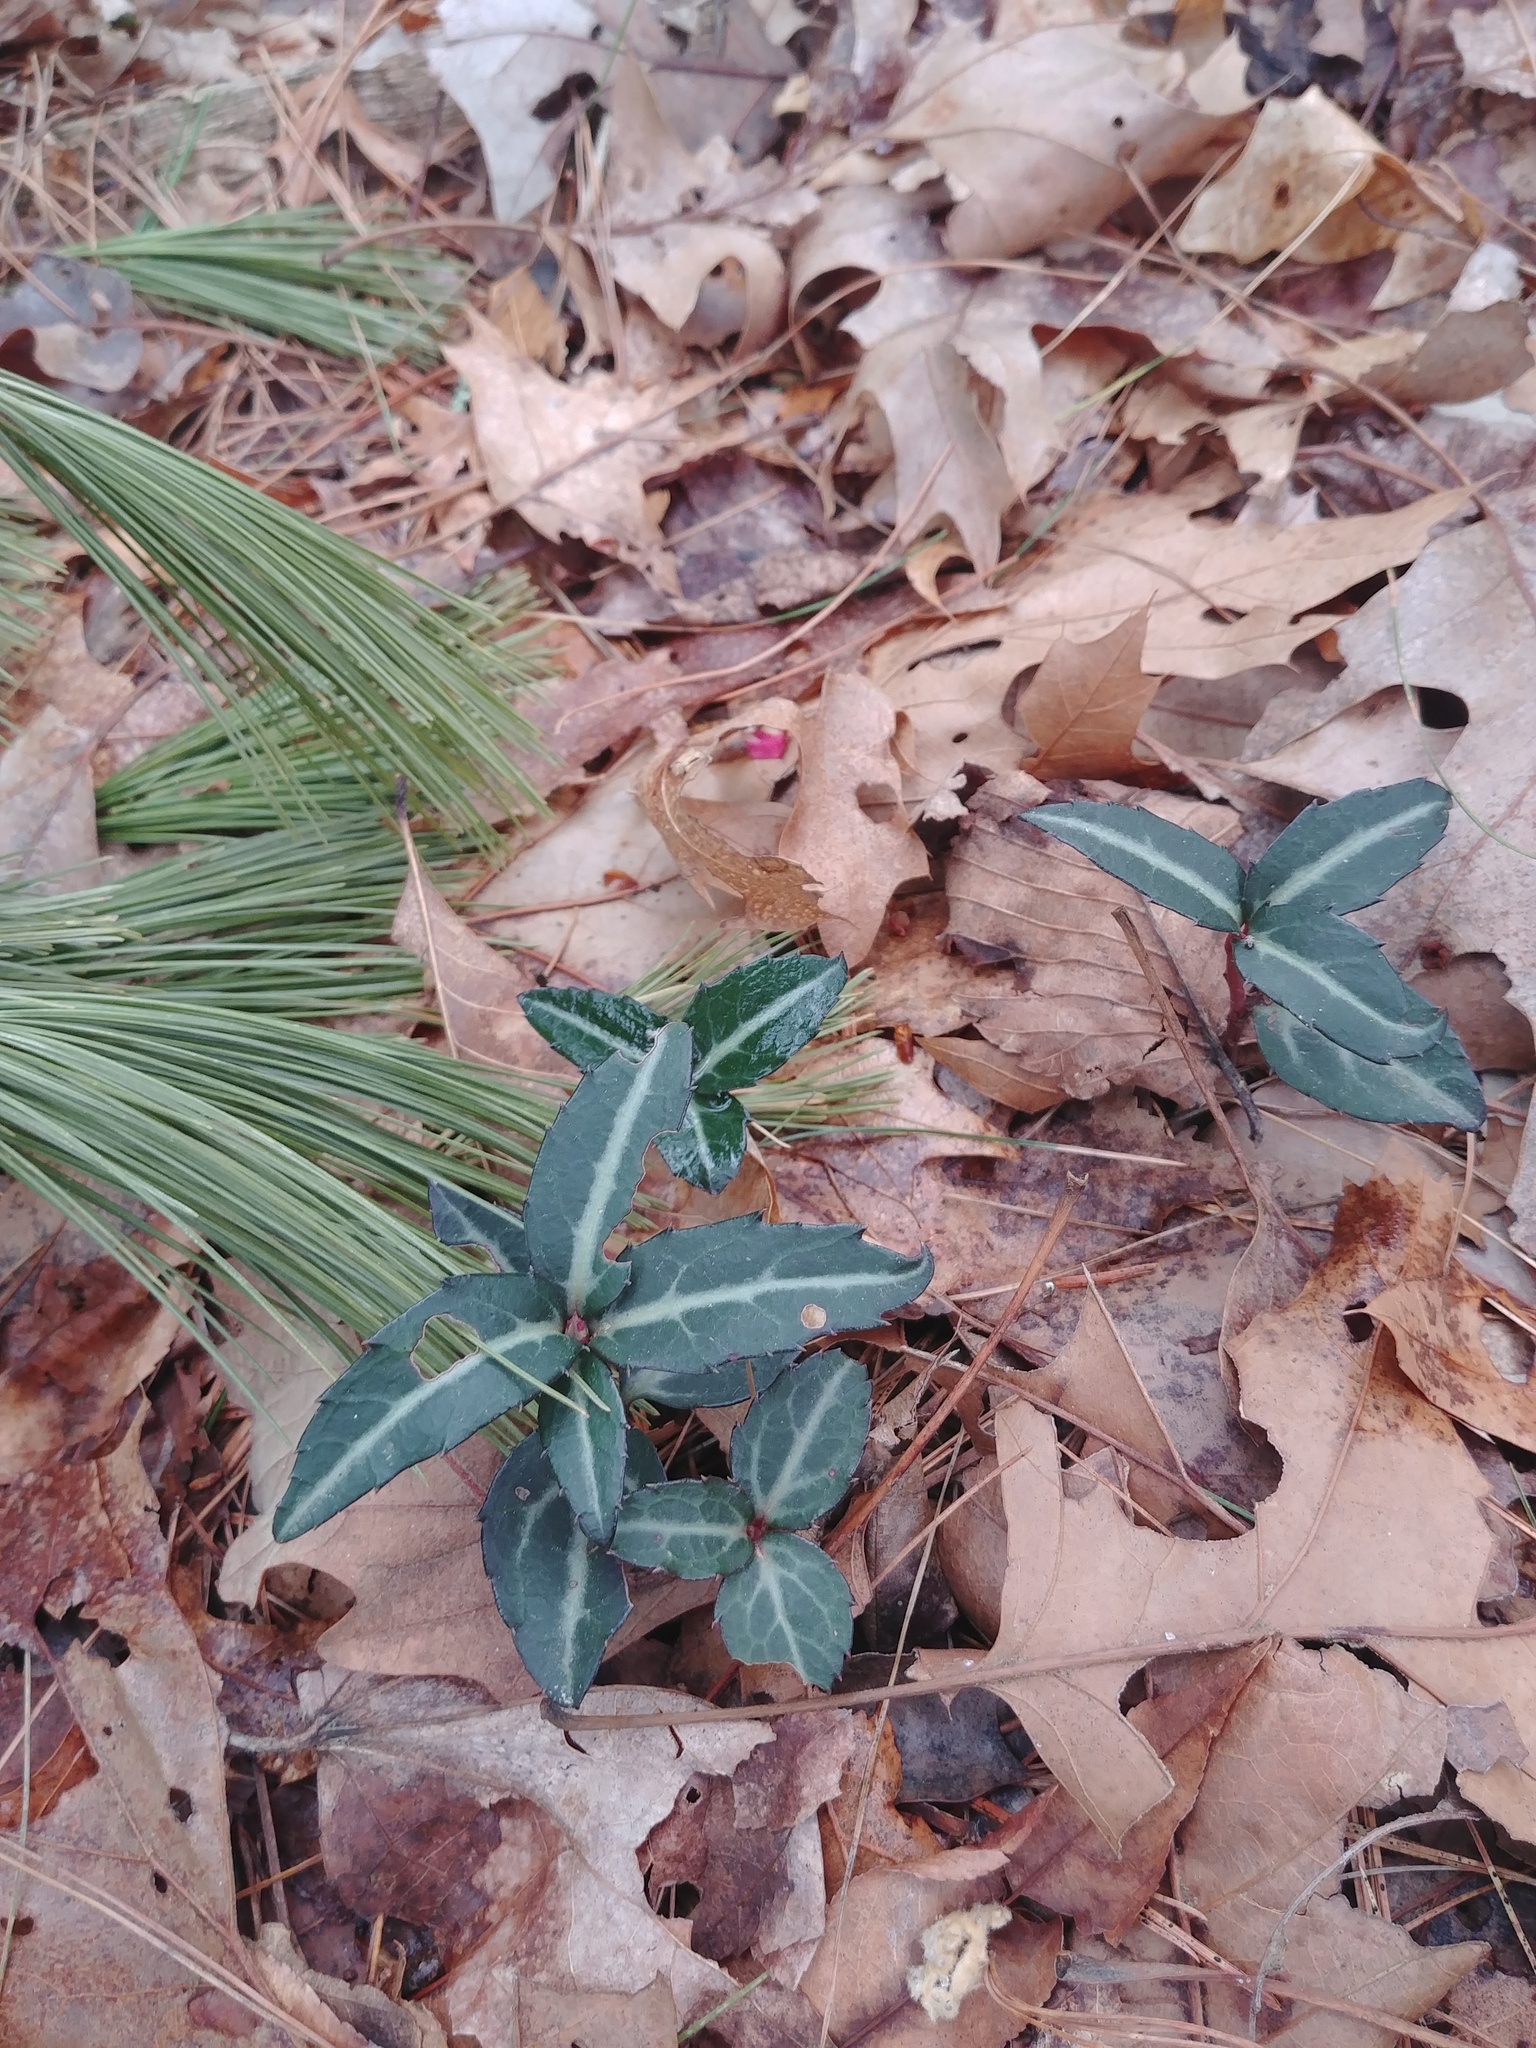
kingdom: Plantae
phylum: Tracheophyta
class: Magnoliopsida
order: Ericales
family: Ericaceae
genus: Chimaphila
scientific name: Chimaphila maculata
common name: Spotted pipsissewa
